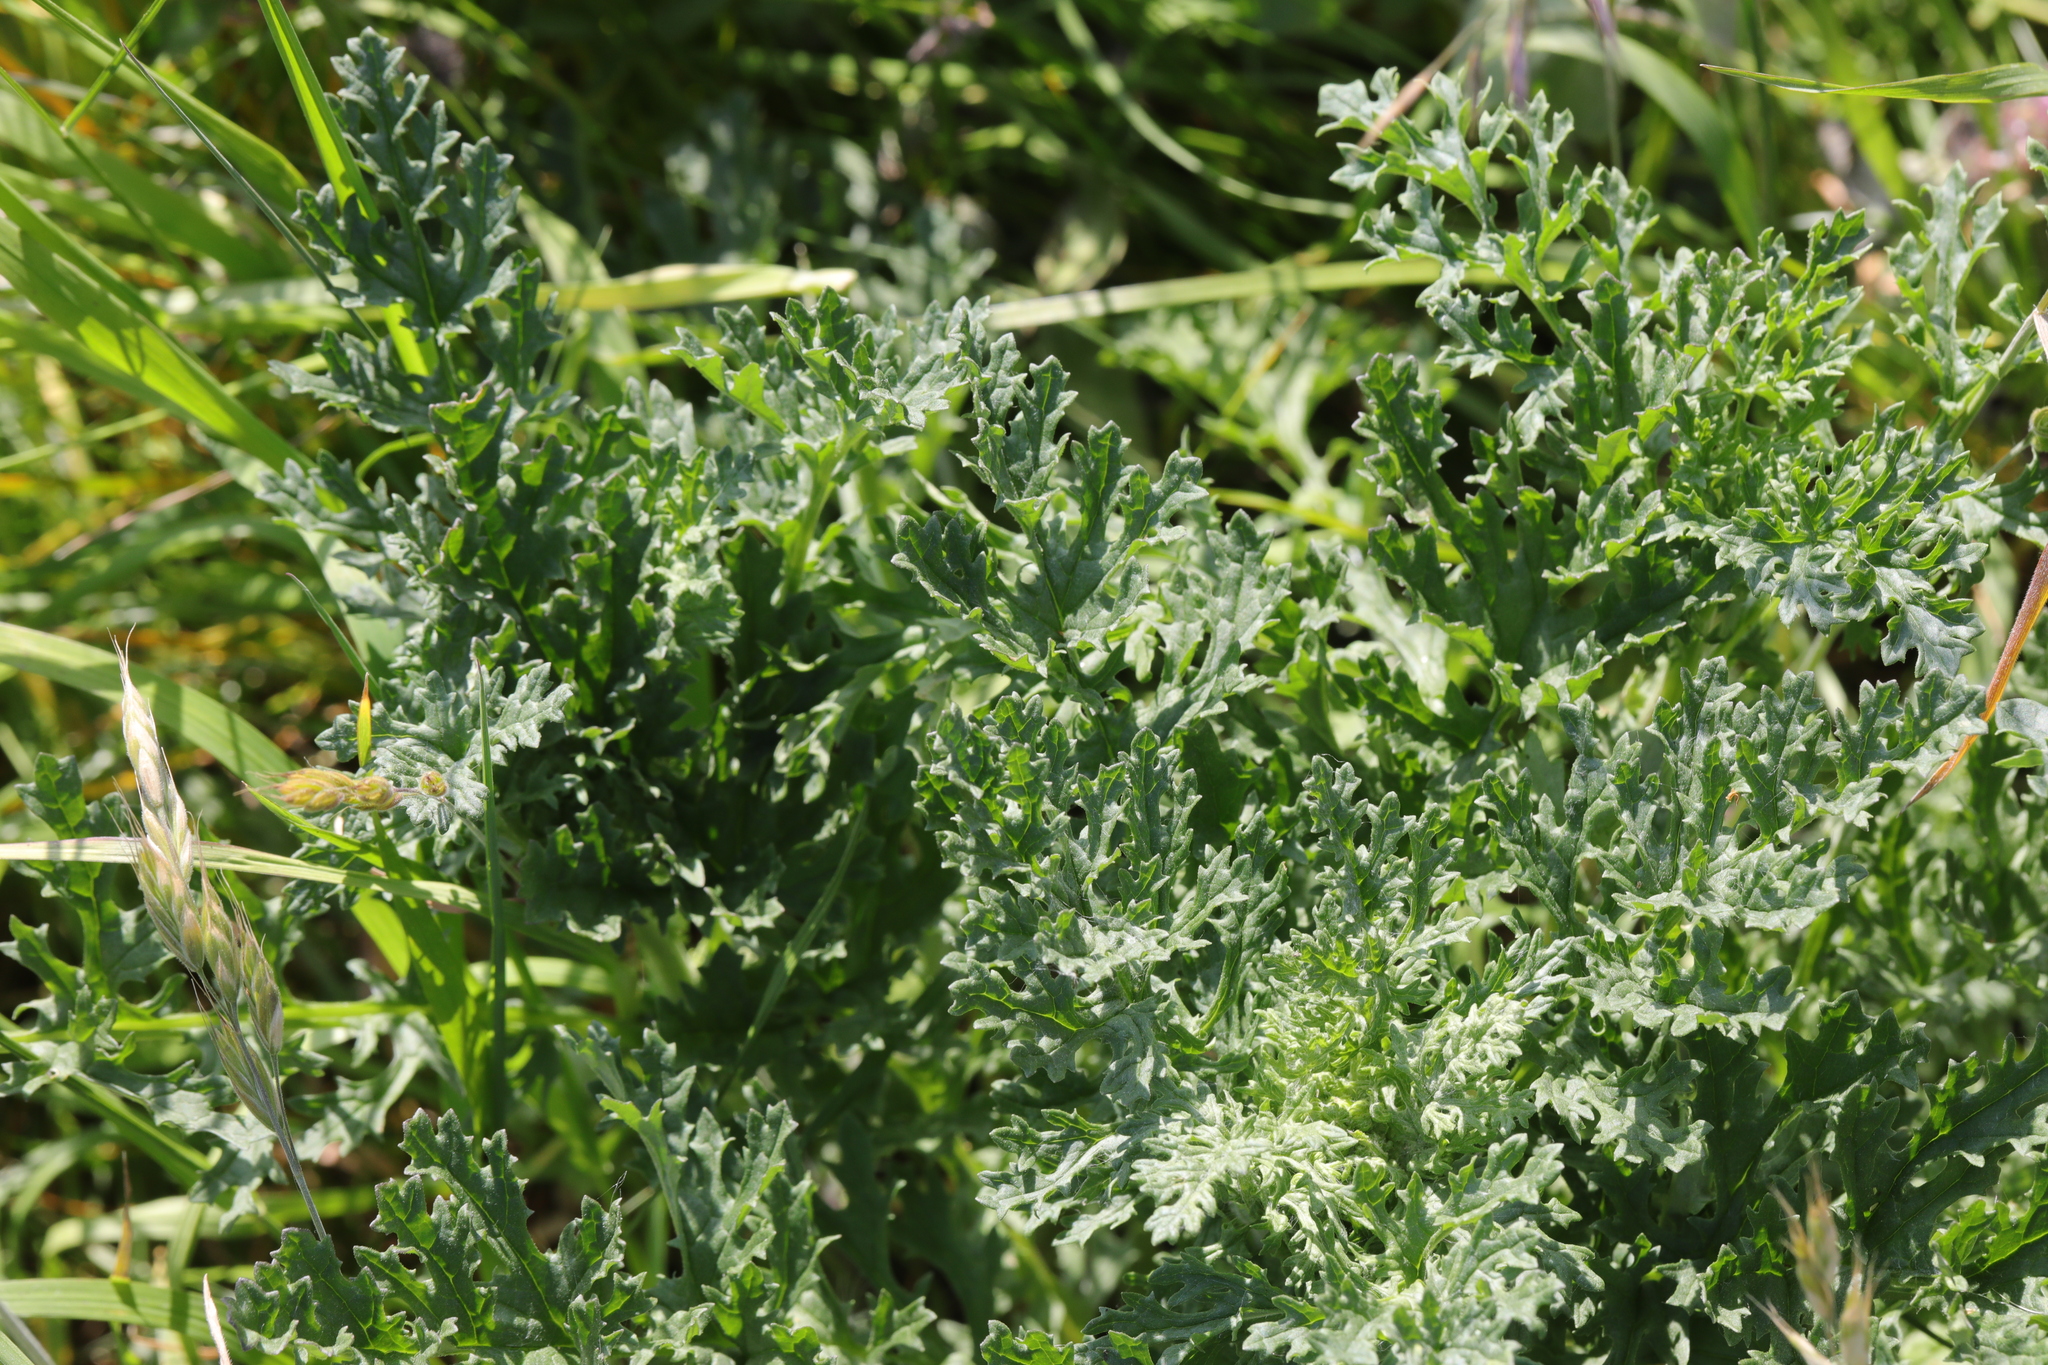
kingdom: Plantae
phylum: Tracheophyta
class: Magnoliopsida
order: Asterales
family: Asteraceae
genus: Jacobaea
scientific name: Jacobaea vulgaris
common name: Stinking willie
